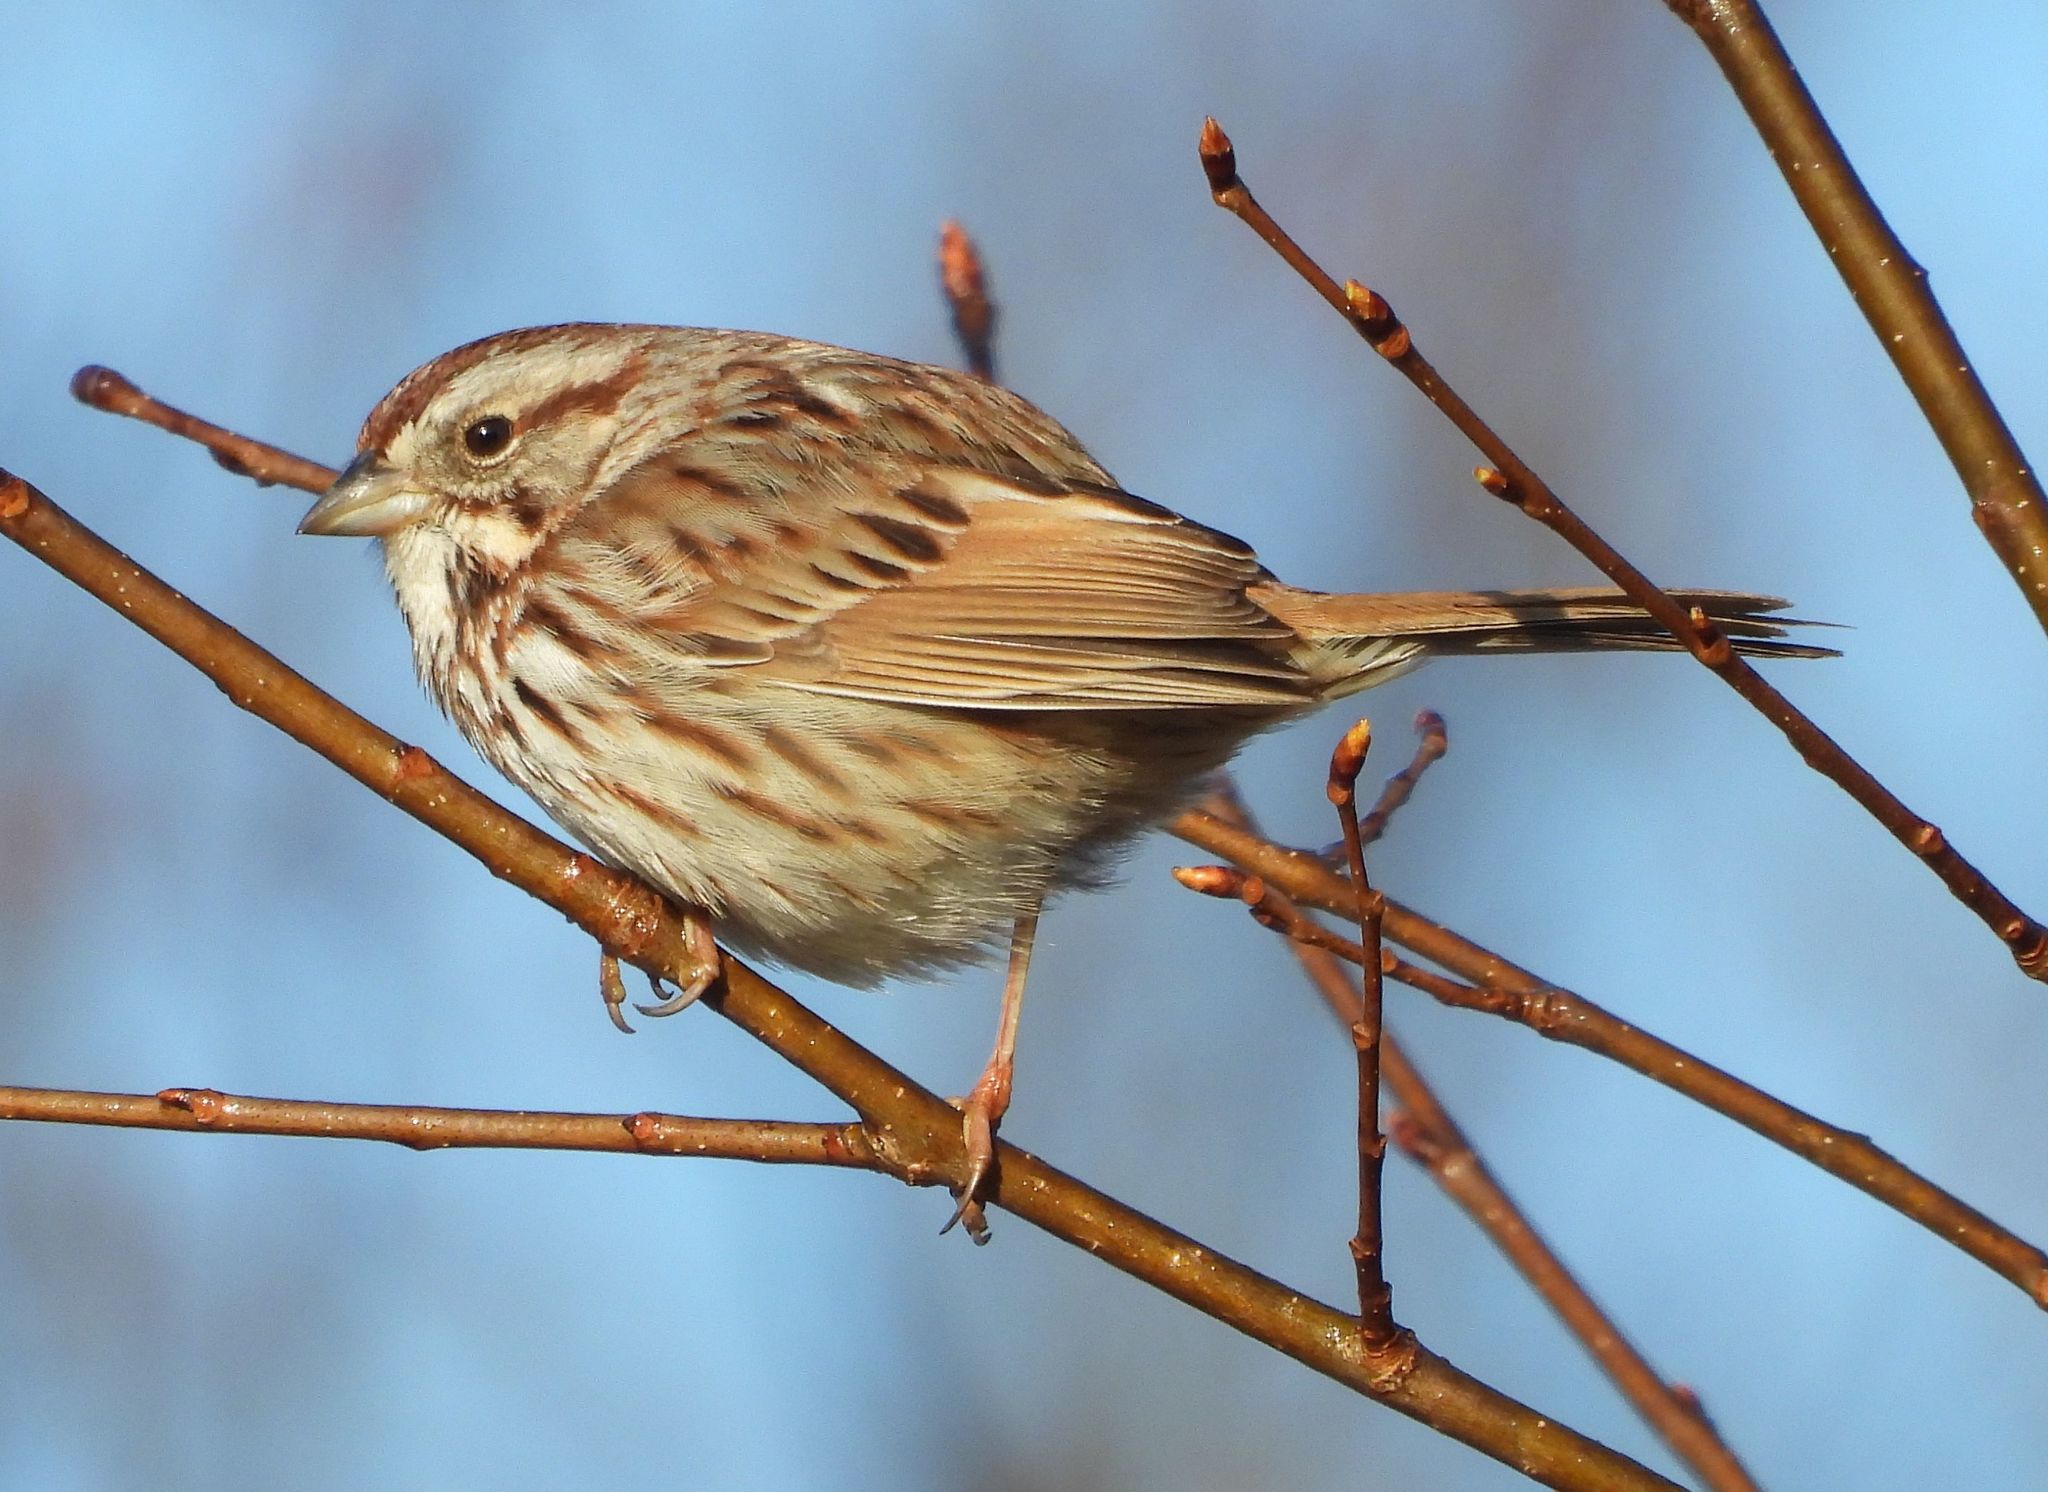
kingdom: Animalia
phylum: Chordata
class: Aves
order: Passeriformes
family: Passerellidae
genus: Melospiza
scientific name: Melospiza melodia
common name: Song sparrow
